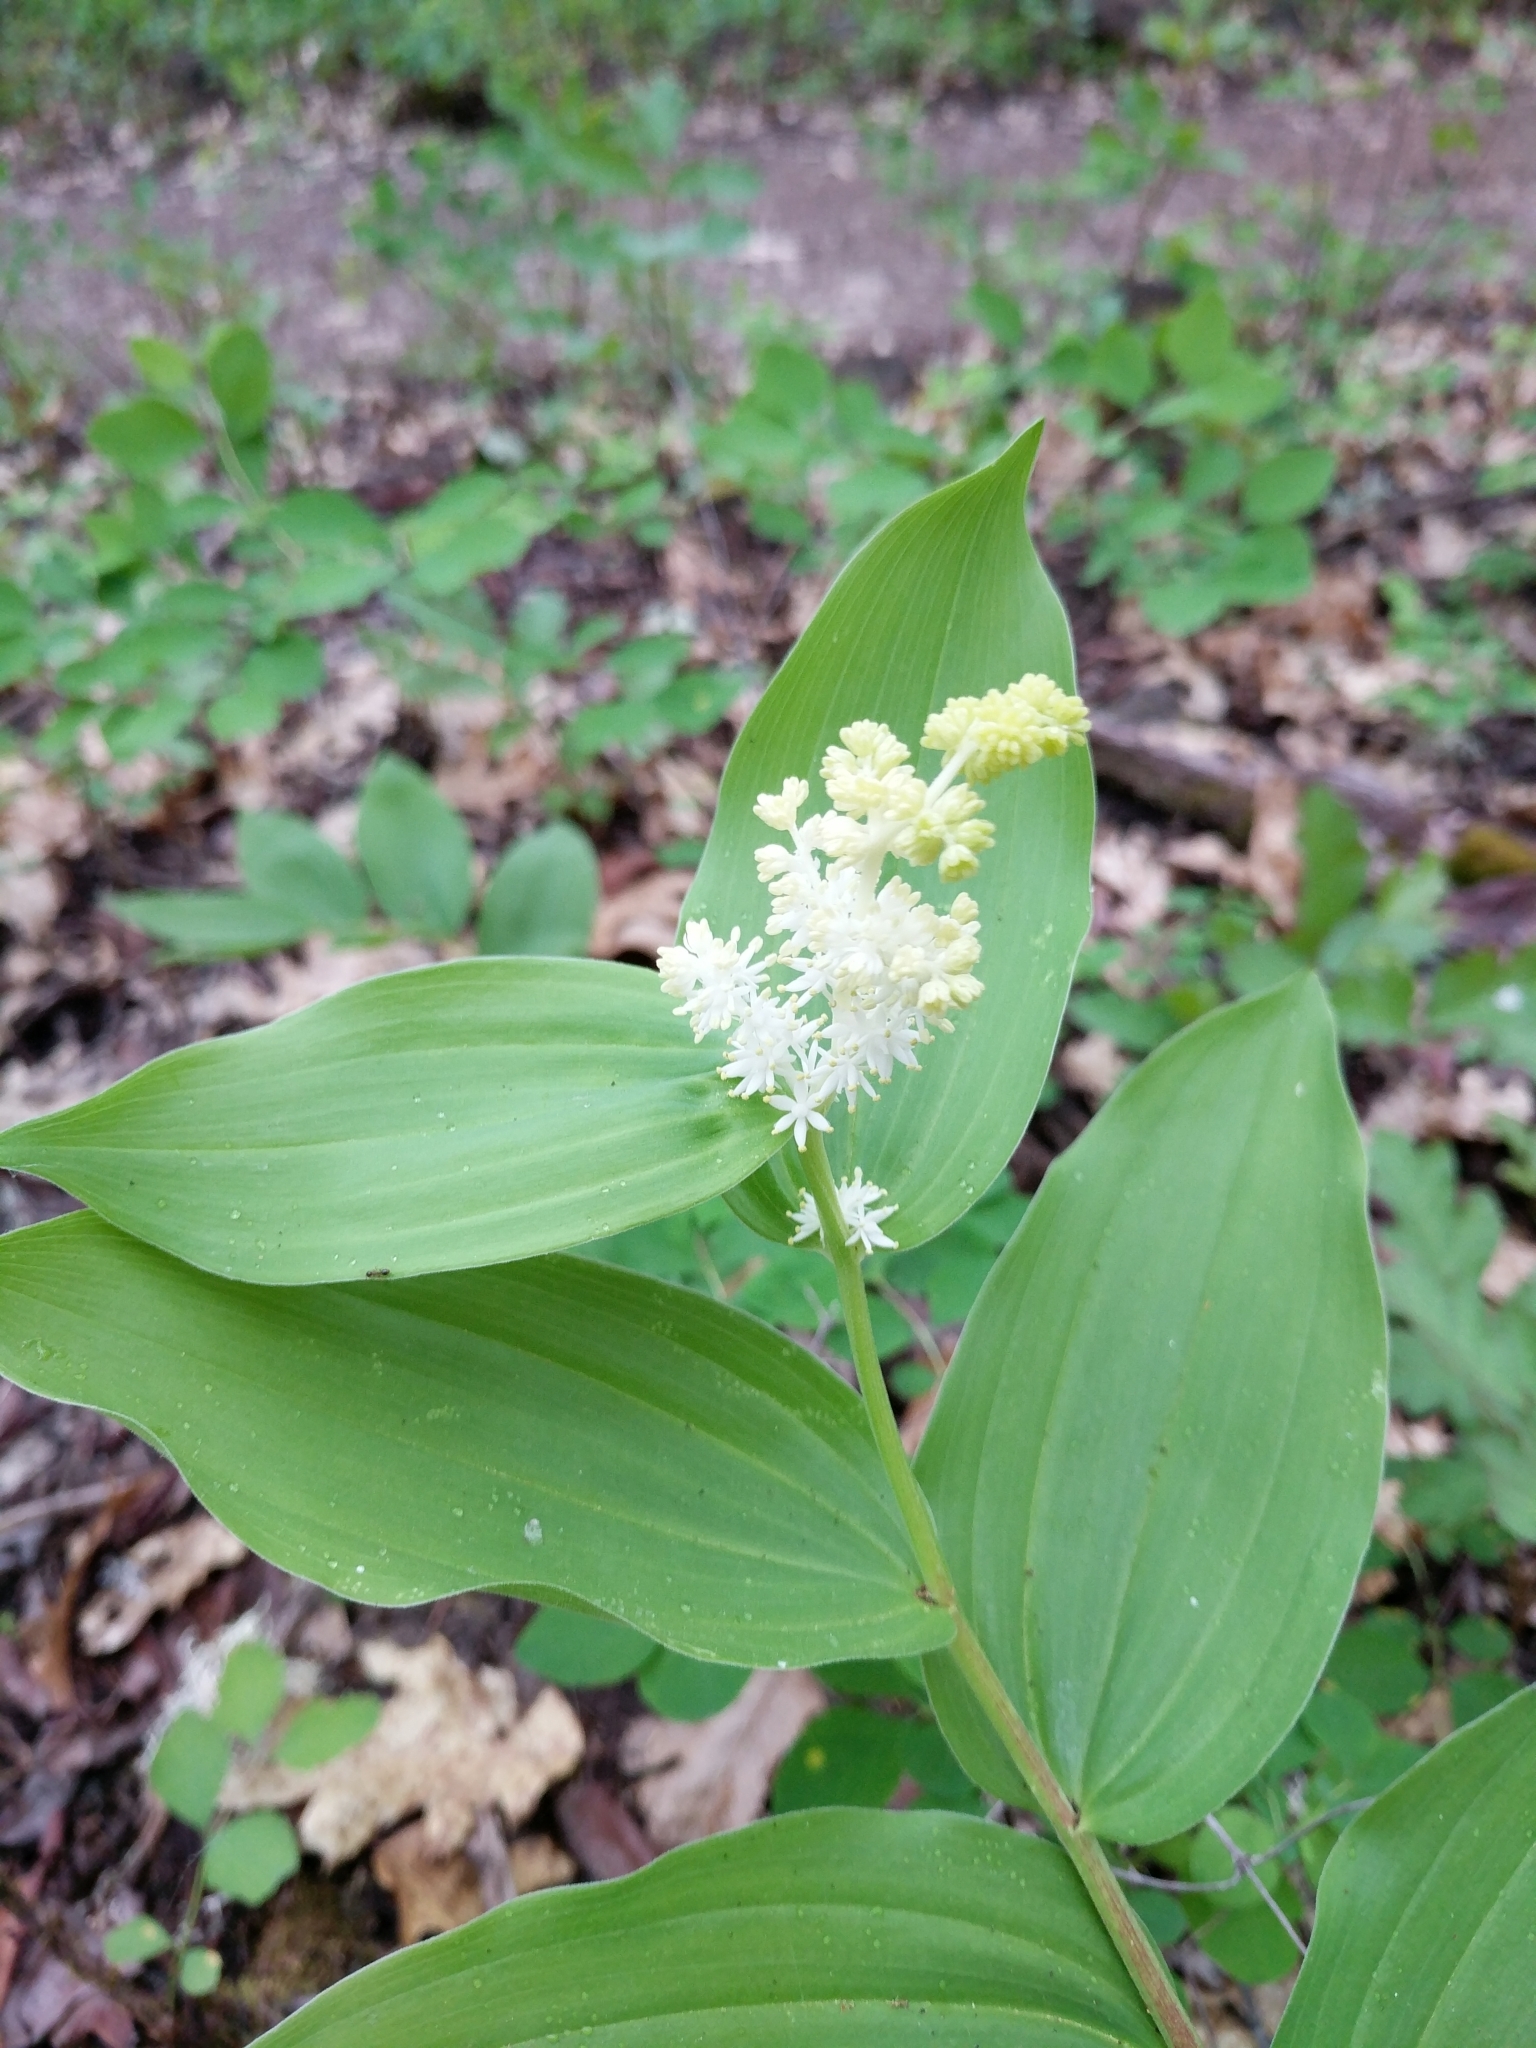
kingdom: Plantae
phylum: Tracheophyta
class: Liliopsida
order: Asparagales
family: Asparagaceae
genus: Maianthemum
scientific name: Maianthemum racemosum
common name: False spikenard
